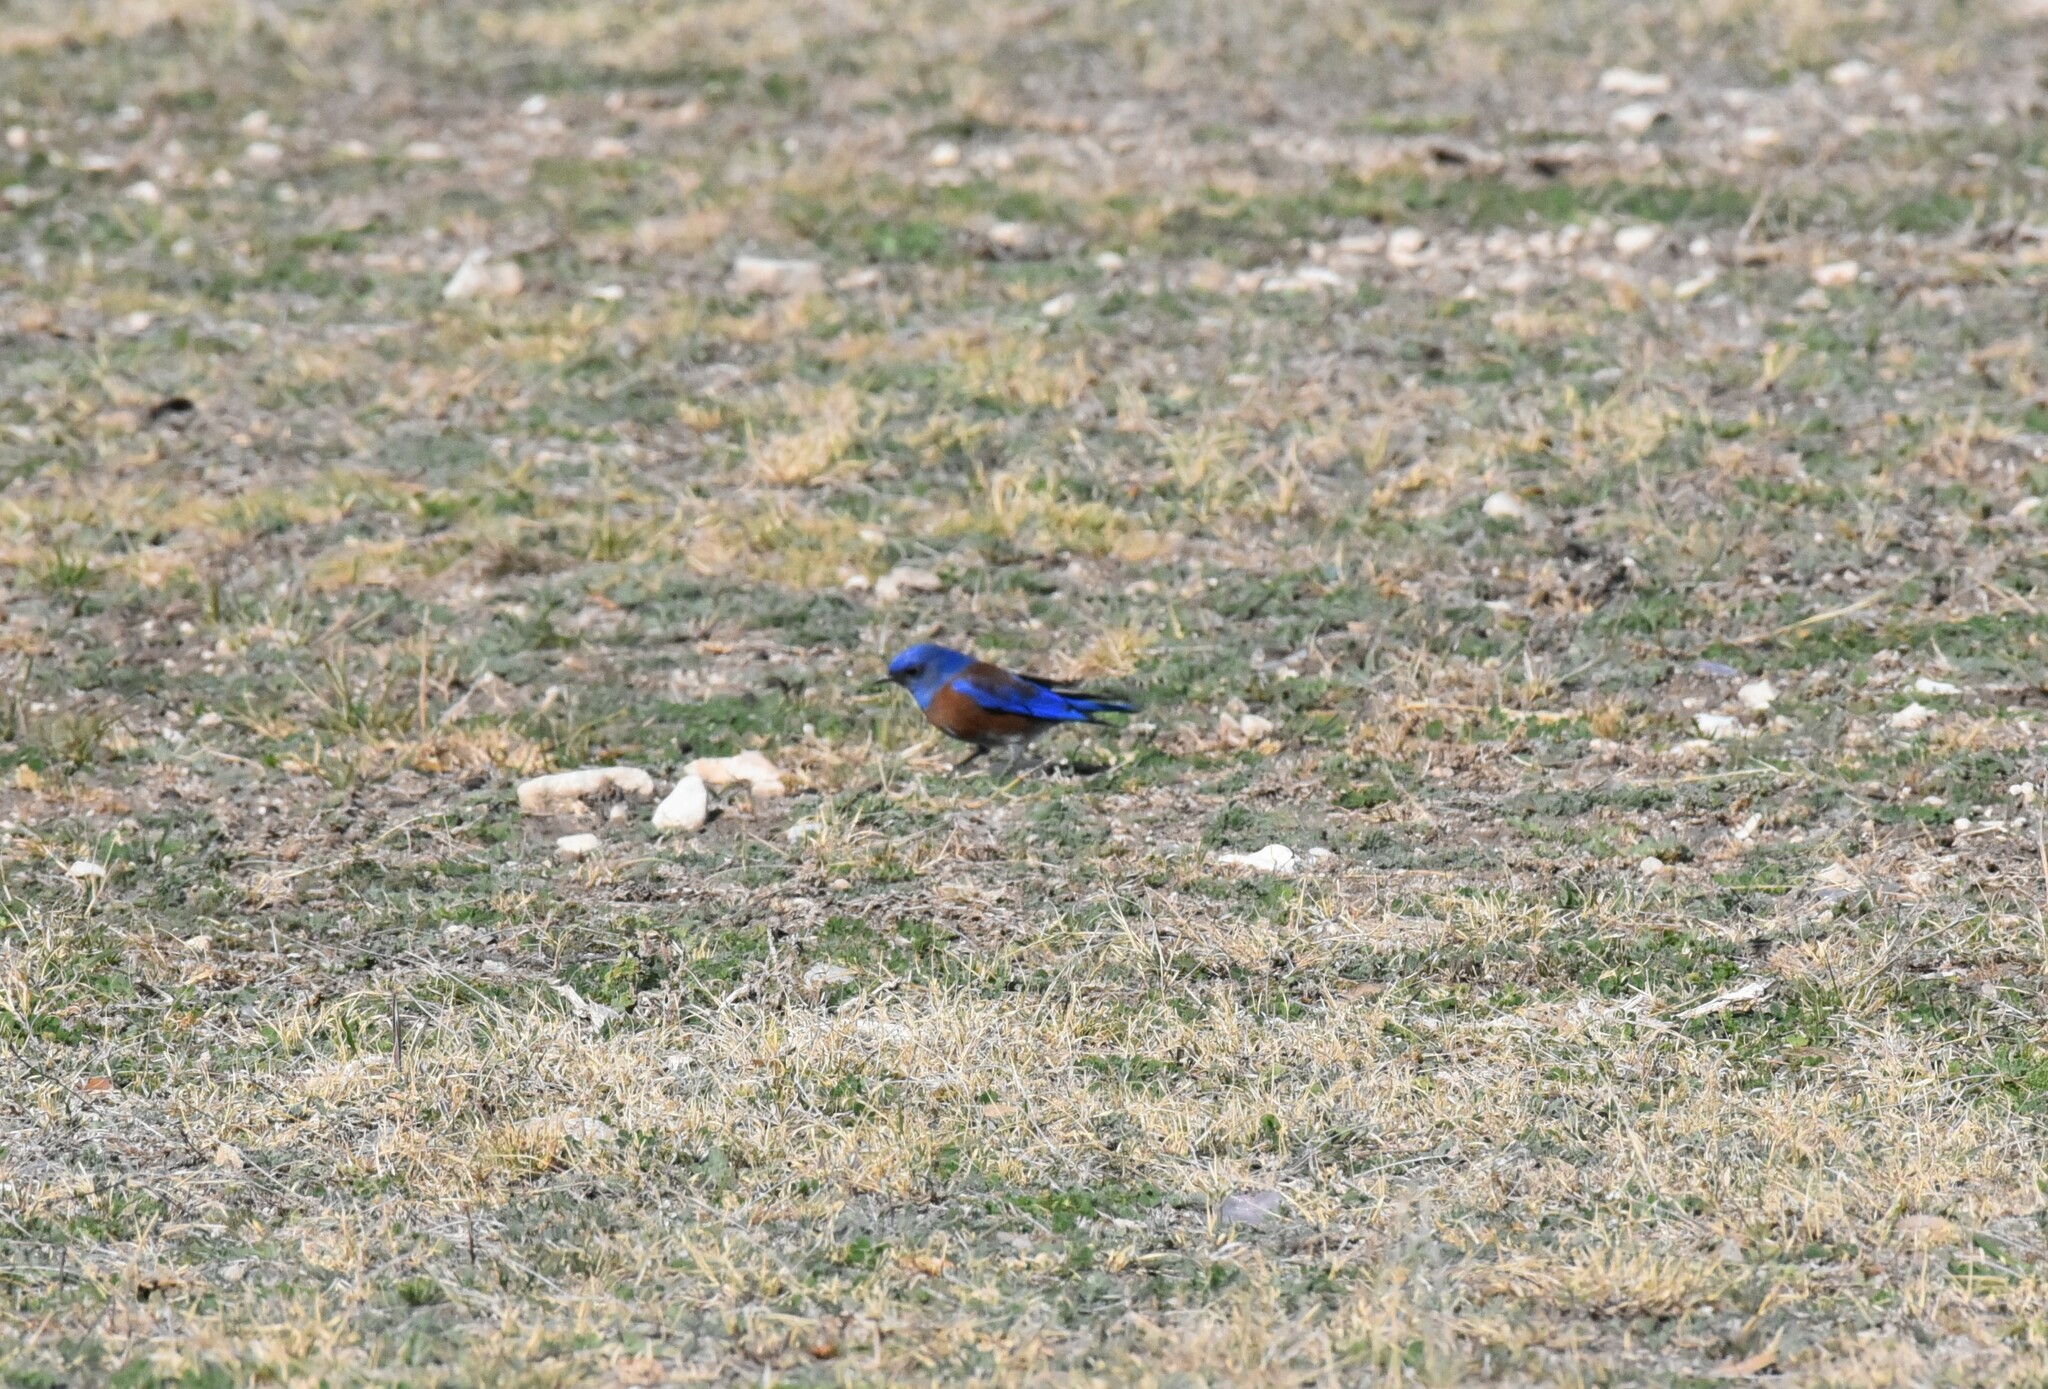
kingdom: Animalia
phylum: Chordata
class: Aves
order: Passeriformes
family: Turdidae
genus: Sialia
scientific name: Sialia mexicana
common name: Western bluebird
